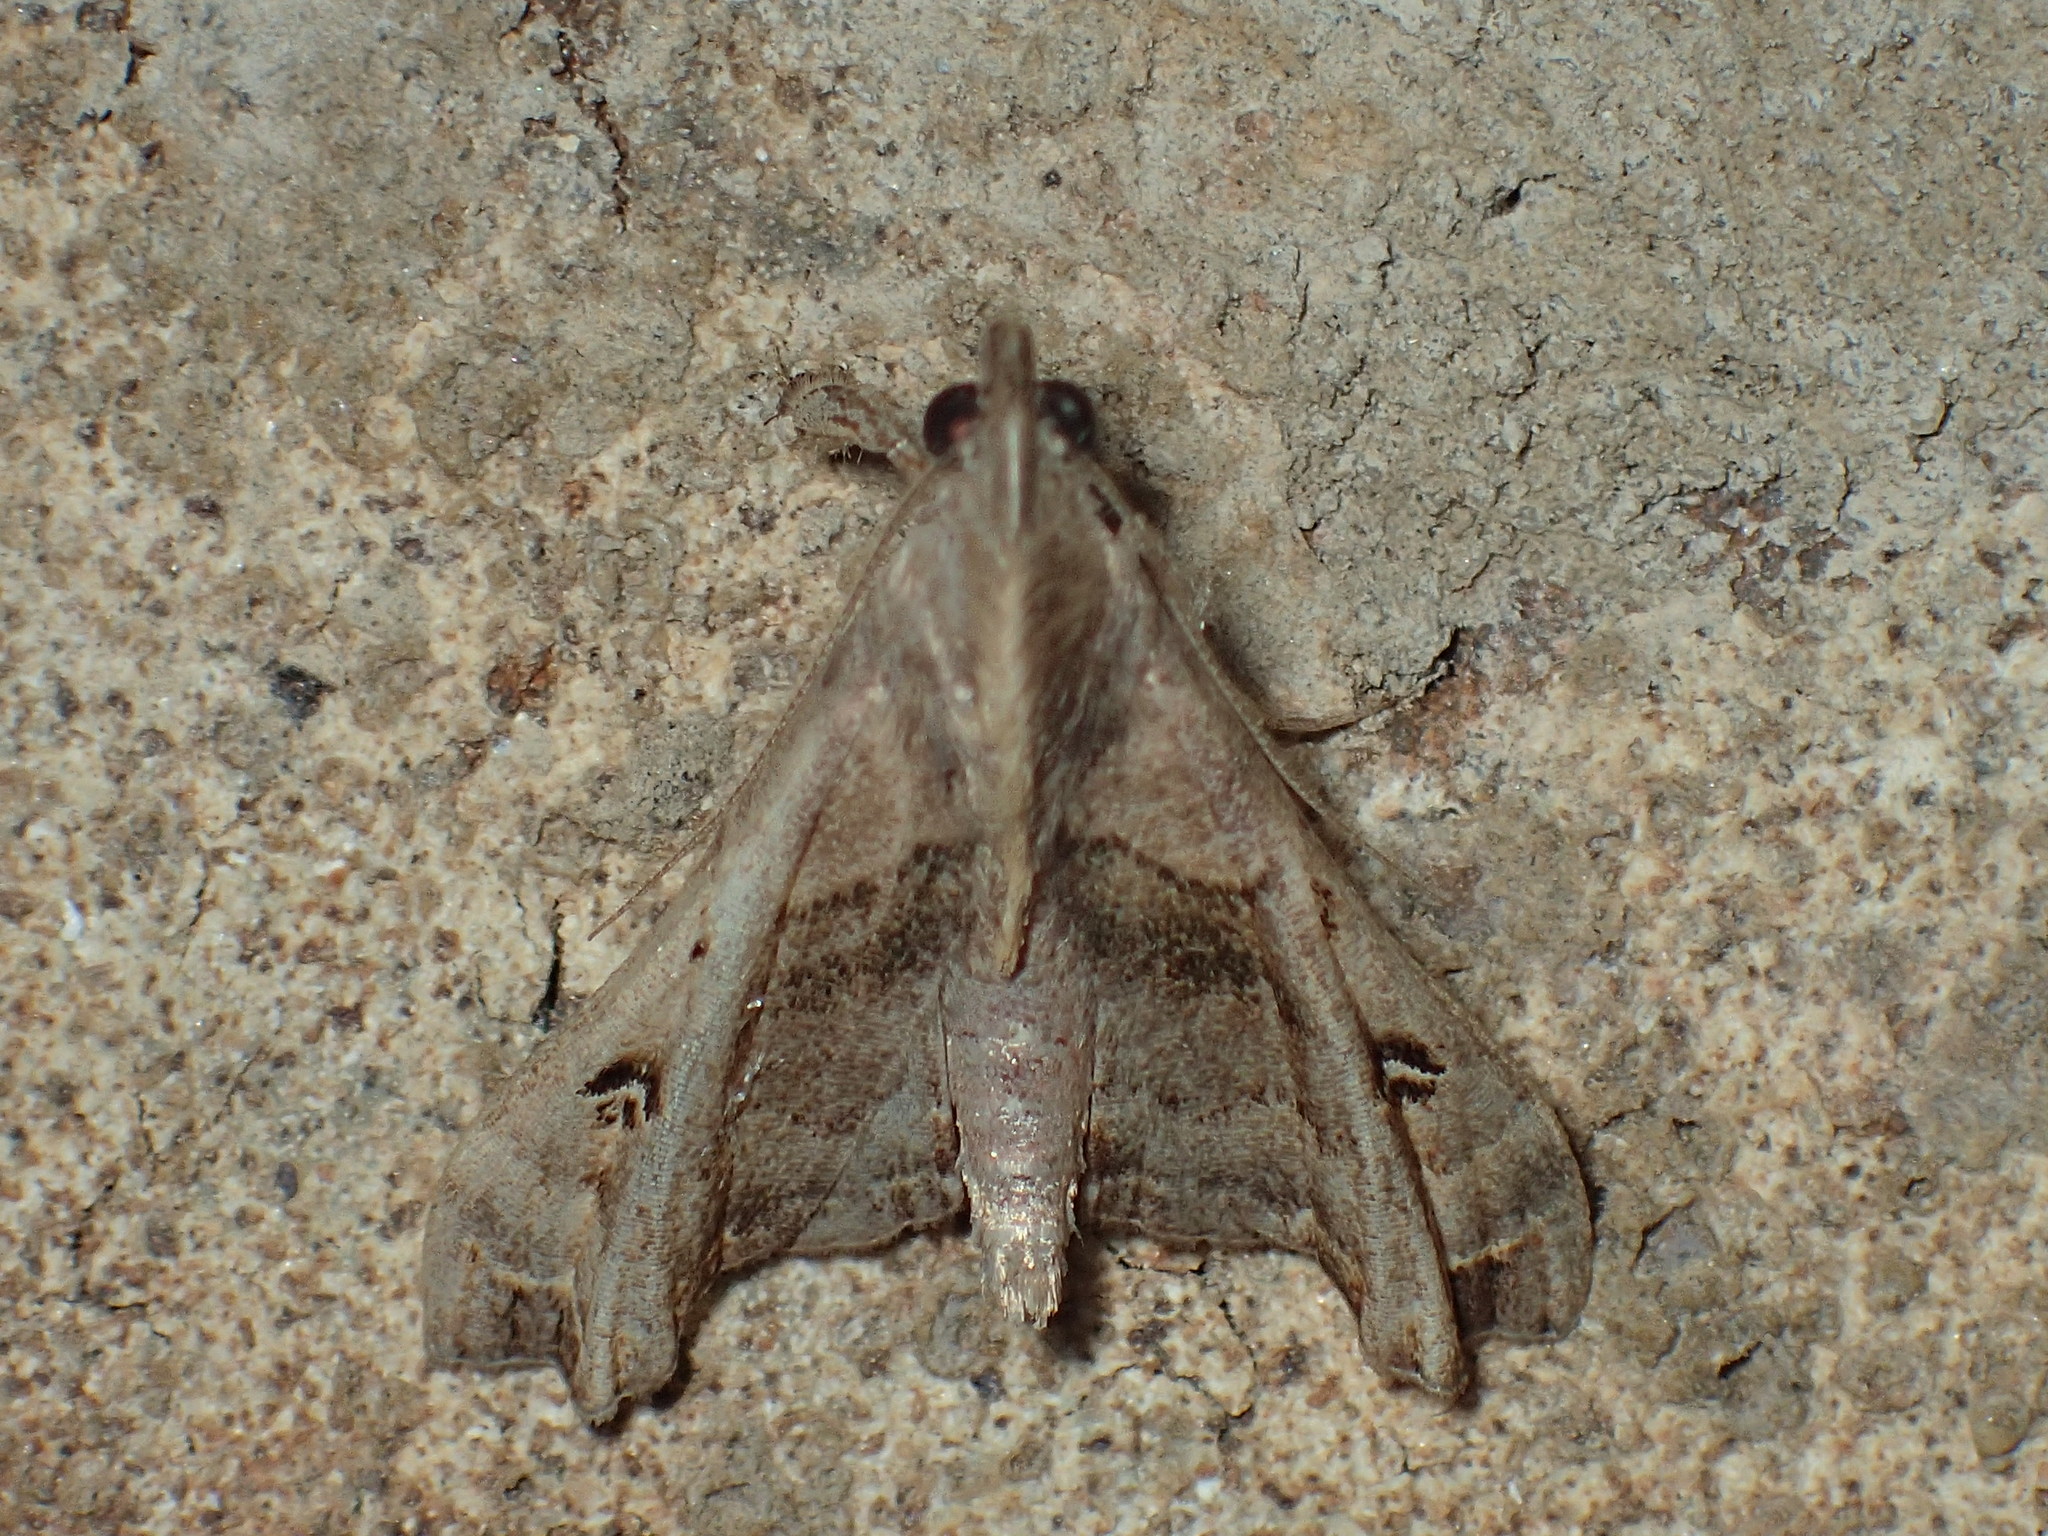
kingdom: Animalia
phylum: Arthropoda
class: Insecta
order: Lepidoptera
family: Erebidae
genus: Palthis
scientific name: Palthis asopialis
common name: Faint-spotted palthis moth
